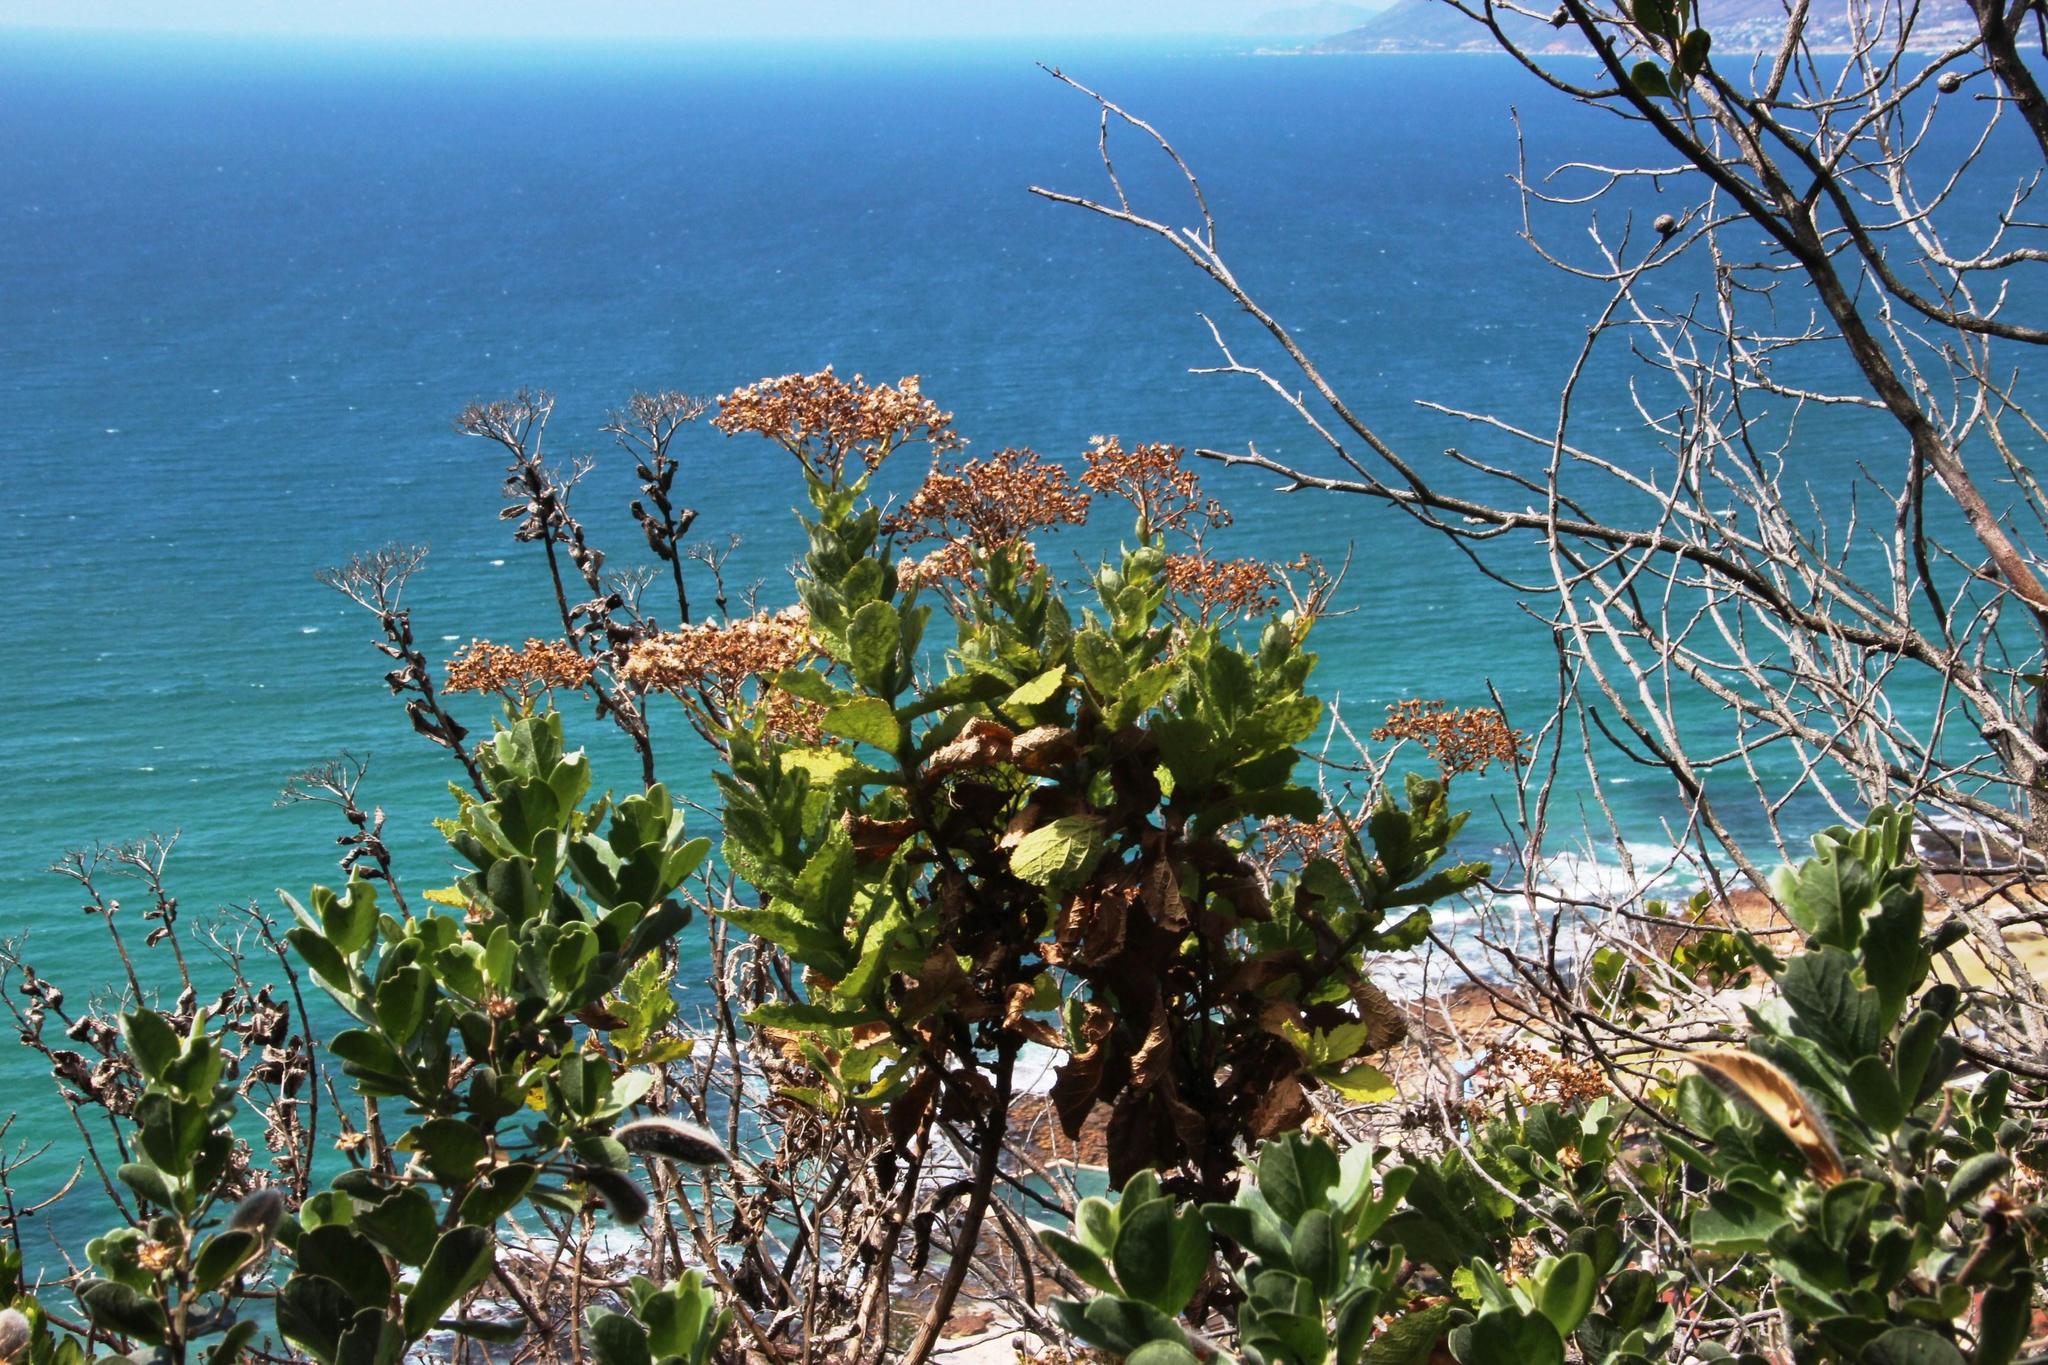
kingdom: Plantae
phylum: Tracheophyta
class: Magnoliopsida
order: Asterales
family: Asteraceae
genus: Senecio
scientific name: Senecio rigidus
